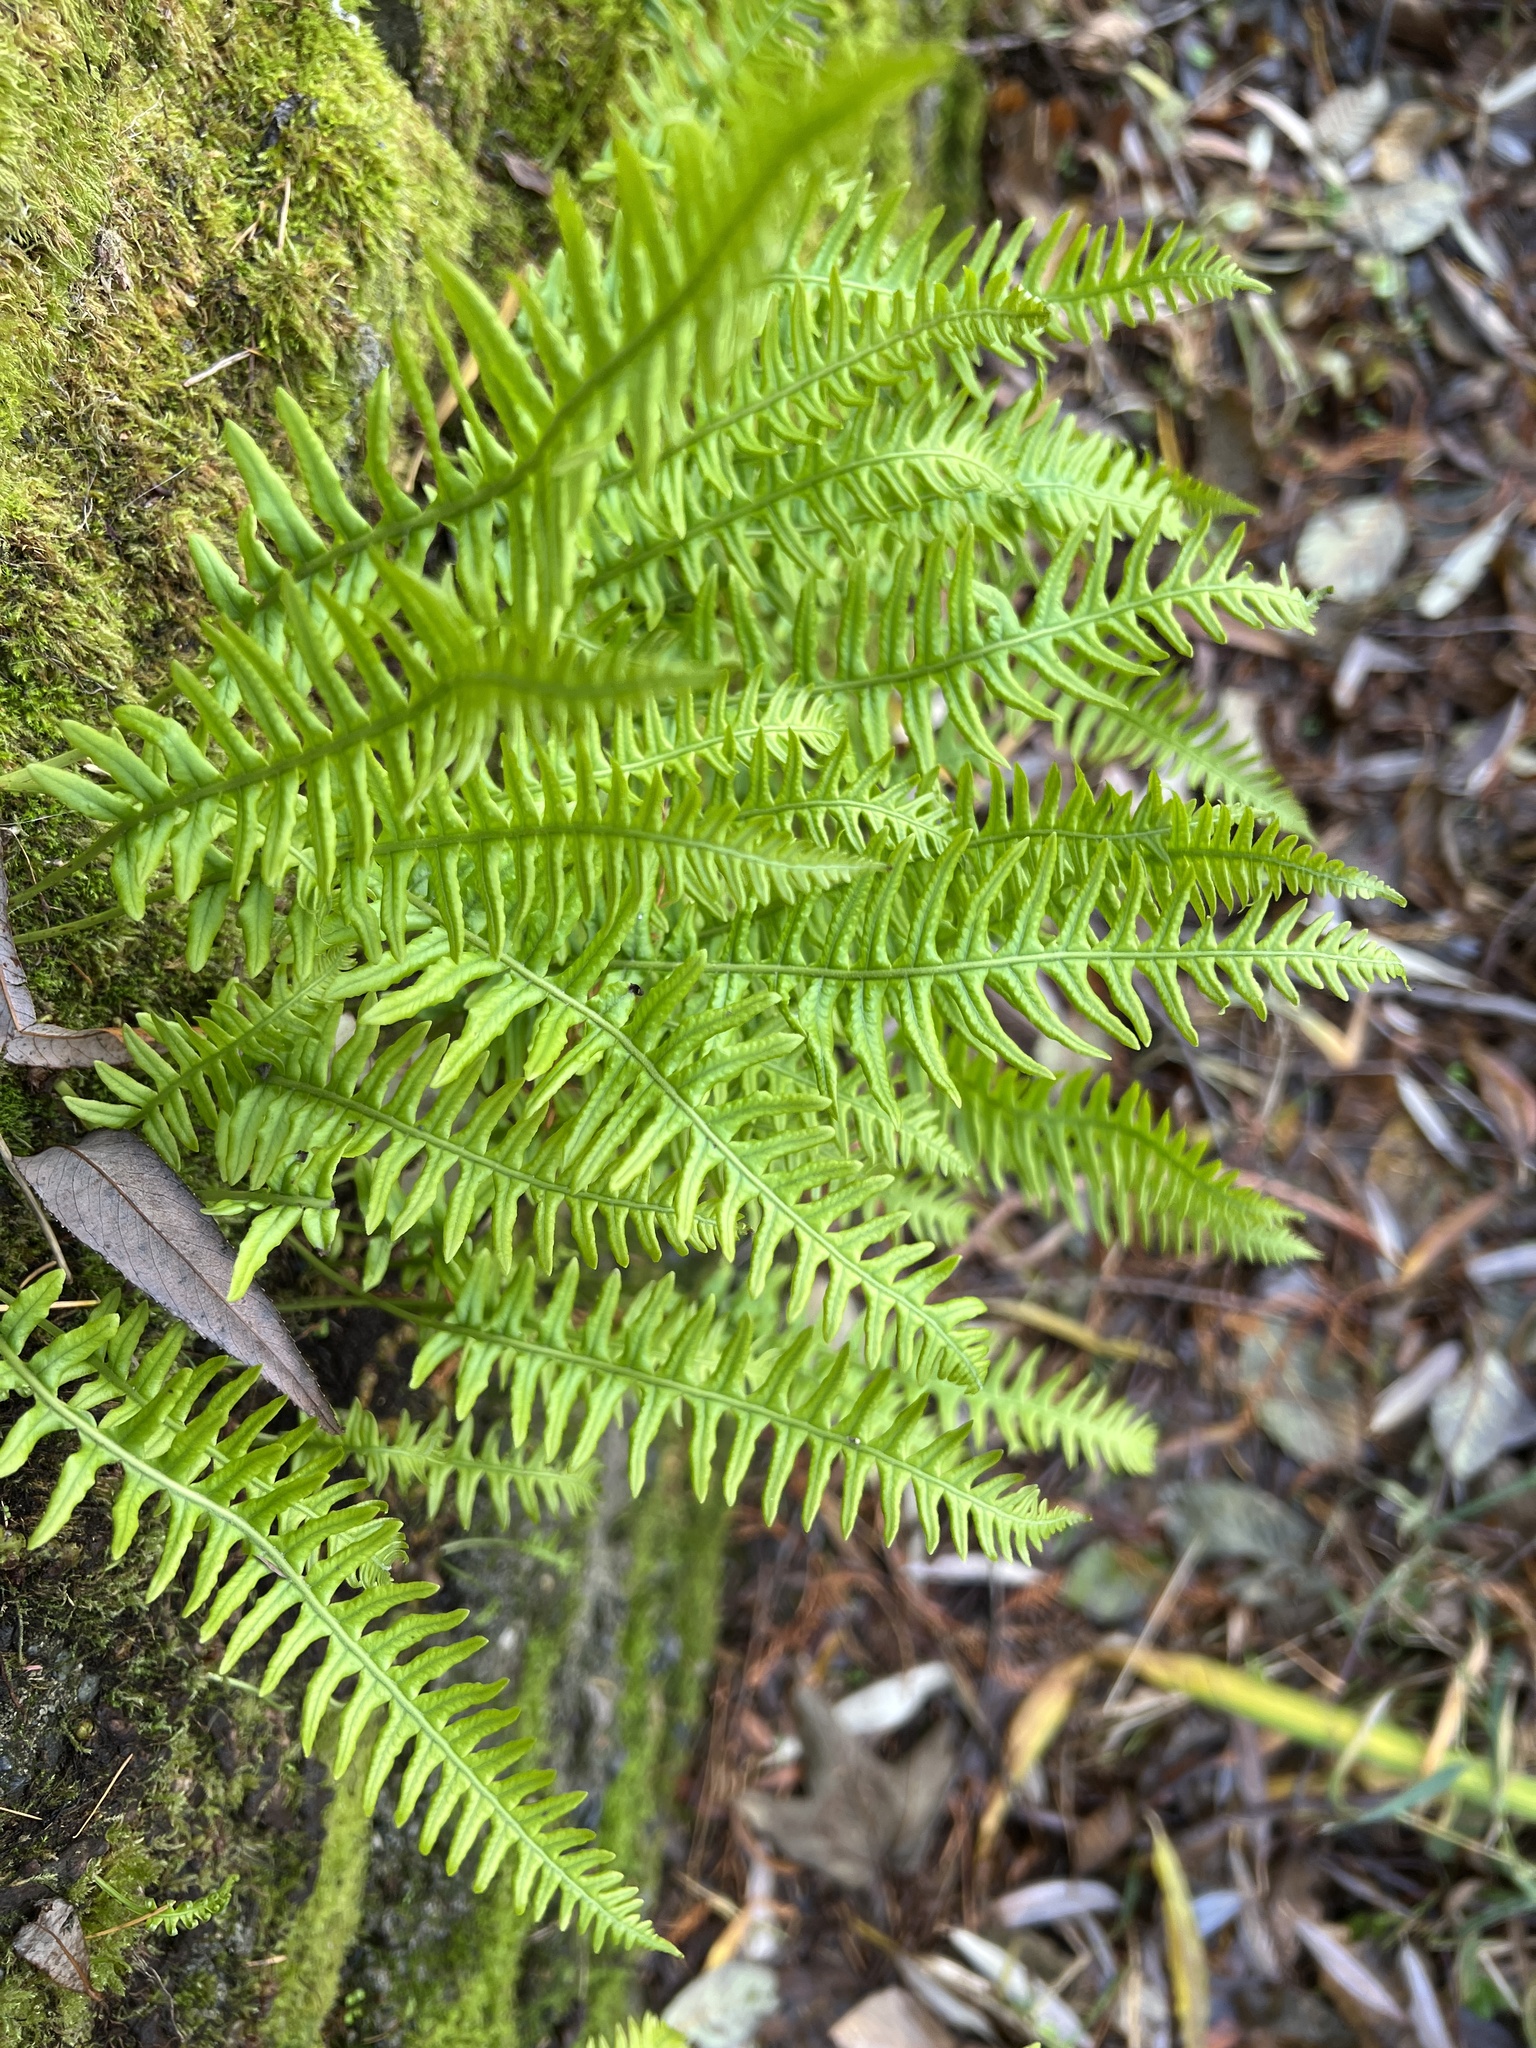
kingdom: Plantae
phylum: Tracheophyta
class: Polypodiopsida
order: Polypodiales
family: Polypodiaceae
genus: Polypodium
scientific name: Polypodium glycyrrhiza
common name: Licorice fern
